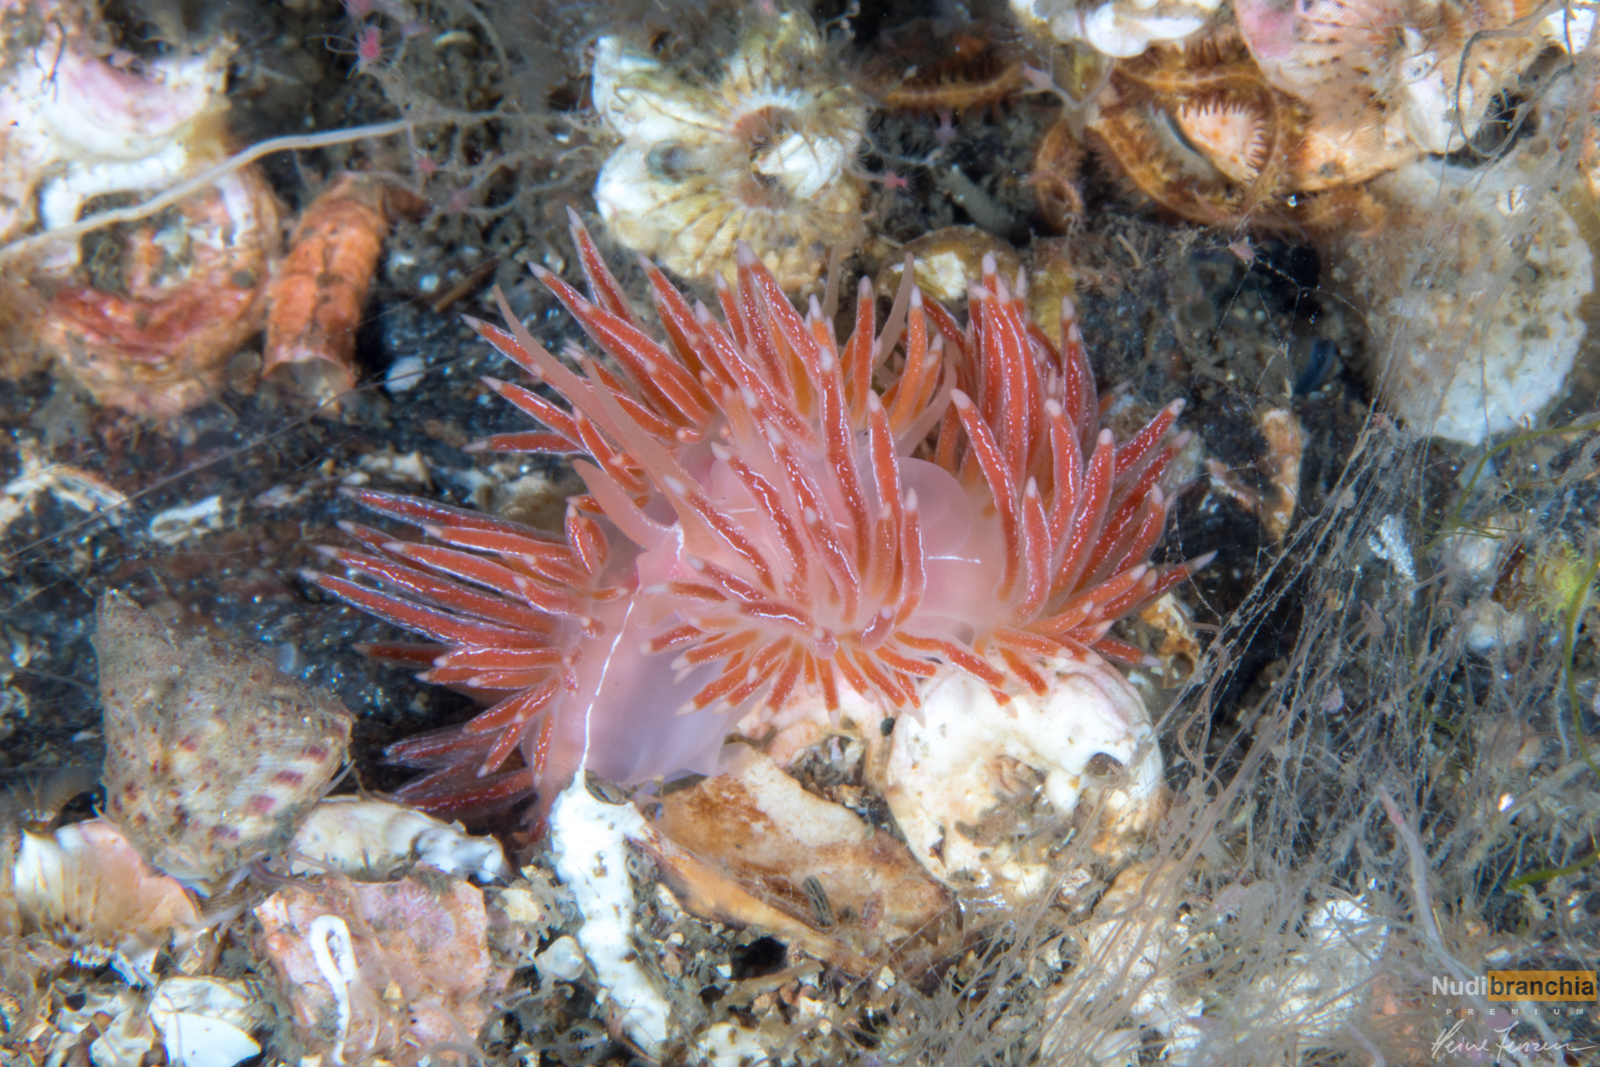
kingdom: Animalia
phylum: Mollusca
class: Gastropoda
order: Nudibranchia
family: Coryphellidae
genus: Coryphella
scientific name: Coryphella chriskaugei
